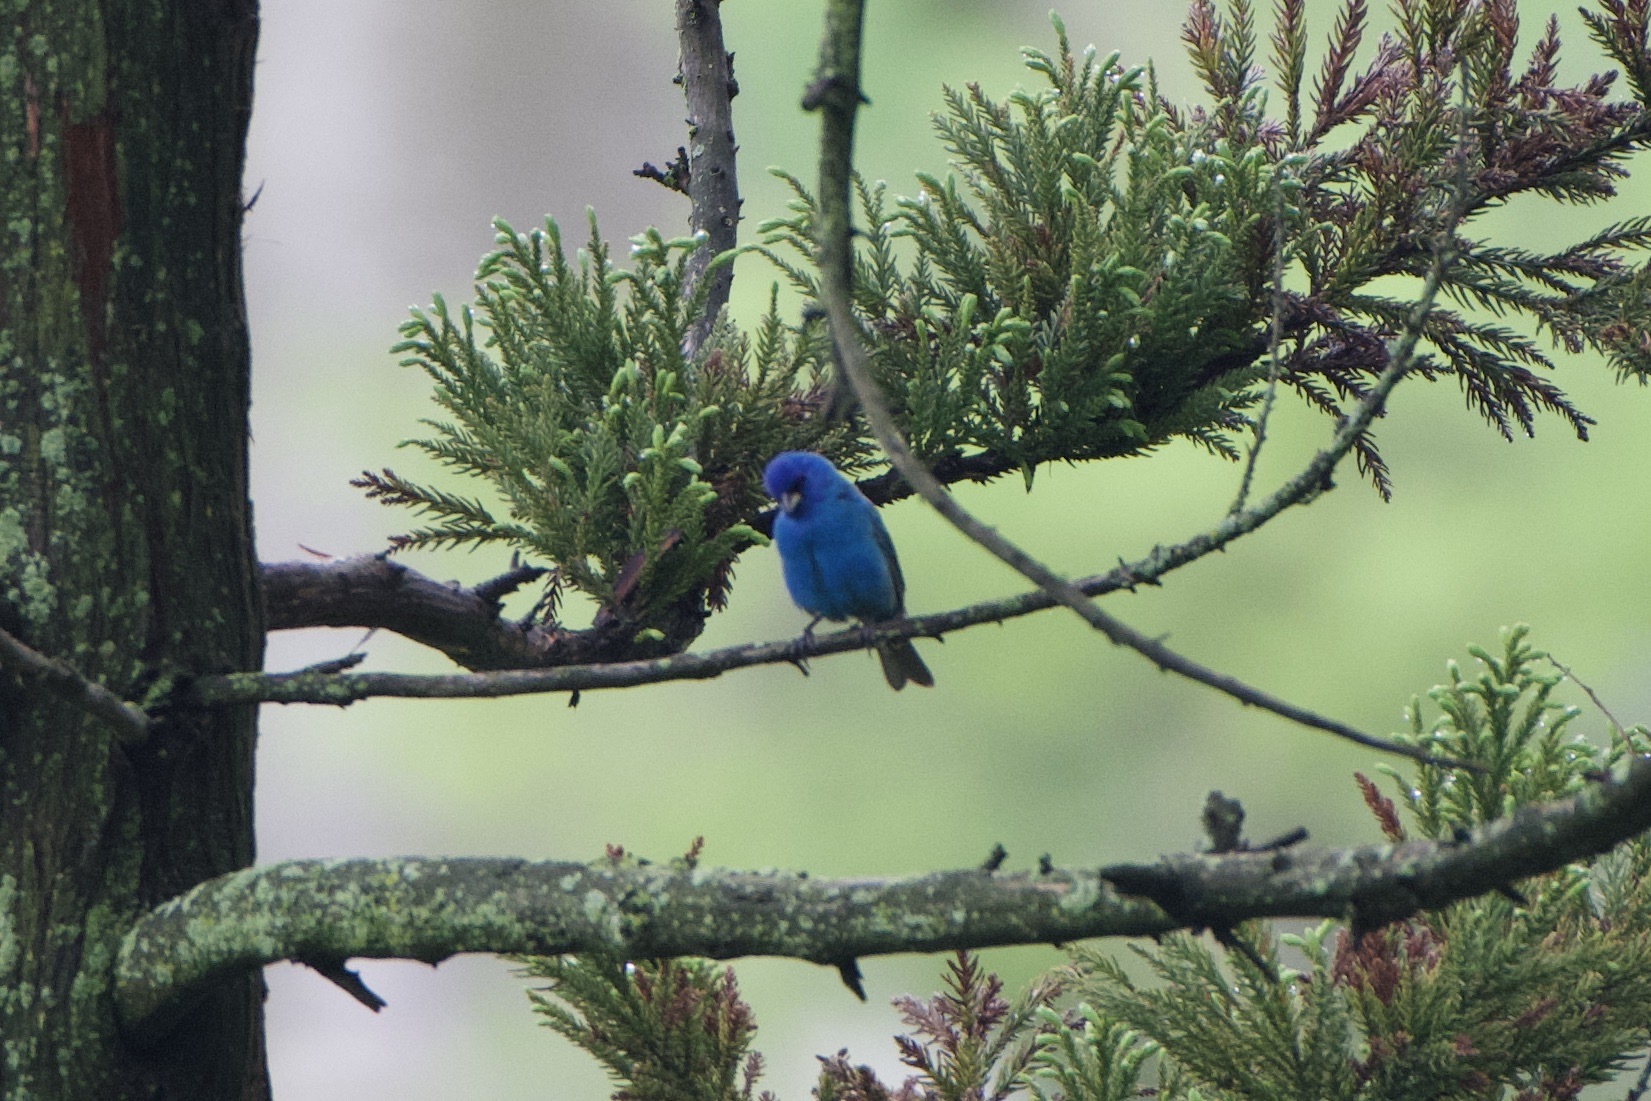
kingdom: Animalia
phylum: Chordata
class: Aves
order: Passeriformes
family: Cardinalidae
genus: Passerina
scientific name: Passerina cyanea
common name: Indigo bunting
